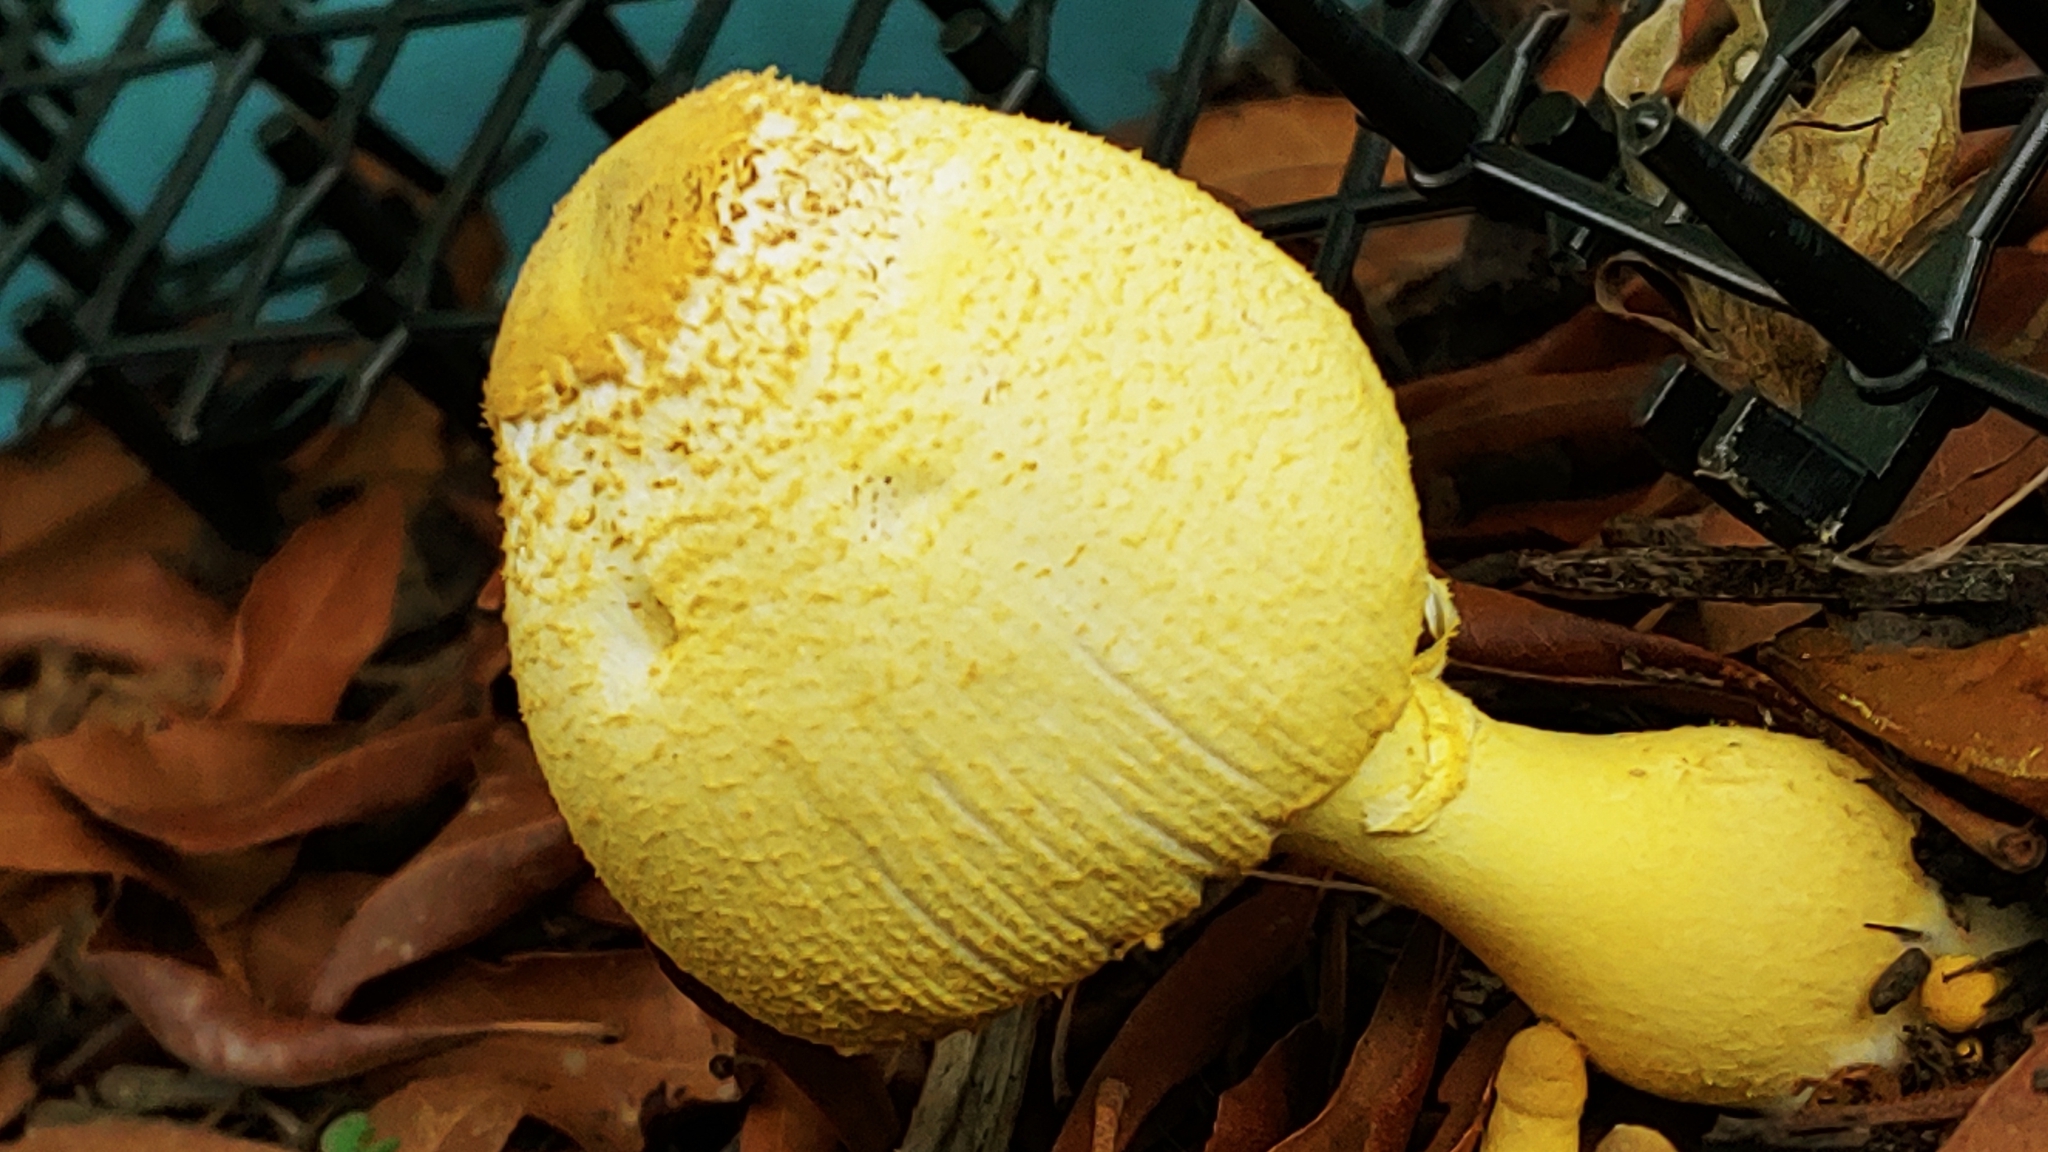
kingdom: Fungi
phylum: Basidiomycota
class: Agaricomycetes
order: Agaricales
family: Agaricaceae
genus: Leucocoprinus
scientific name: Leucocoprinus birnbaumii
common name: Plantpot dapperling
